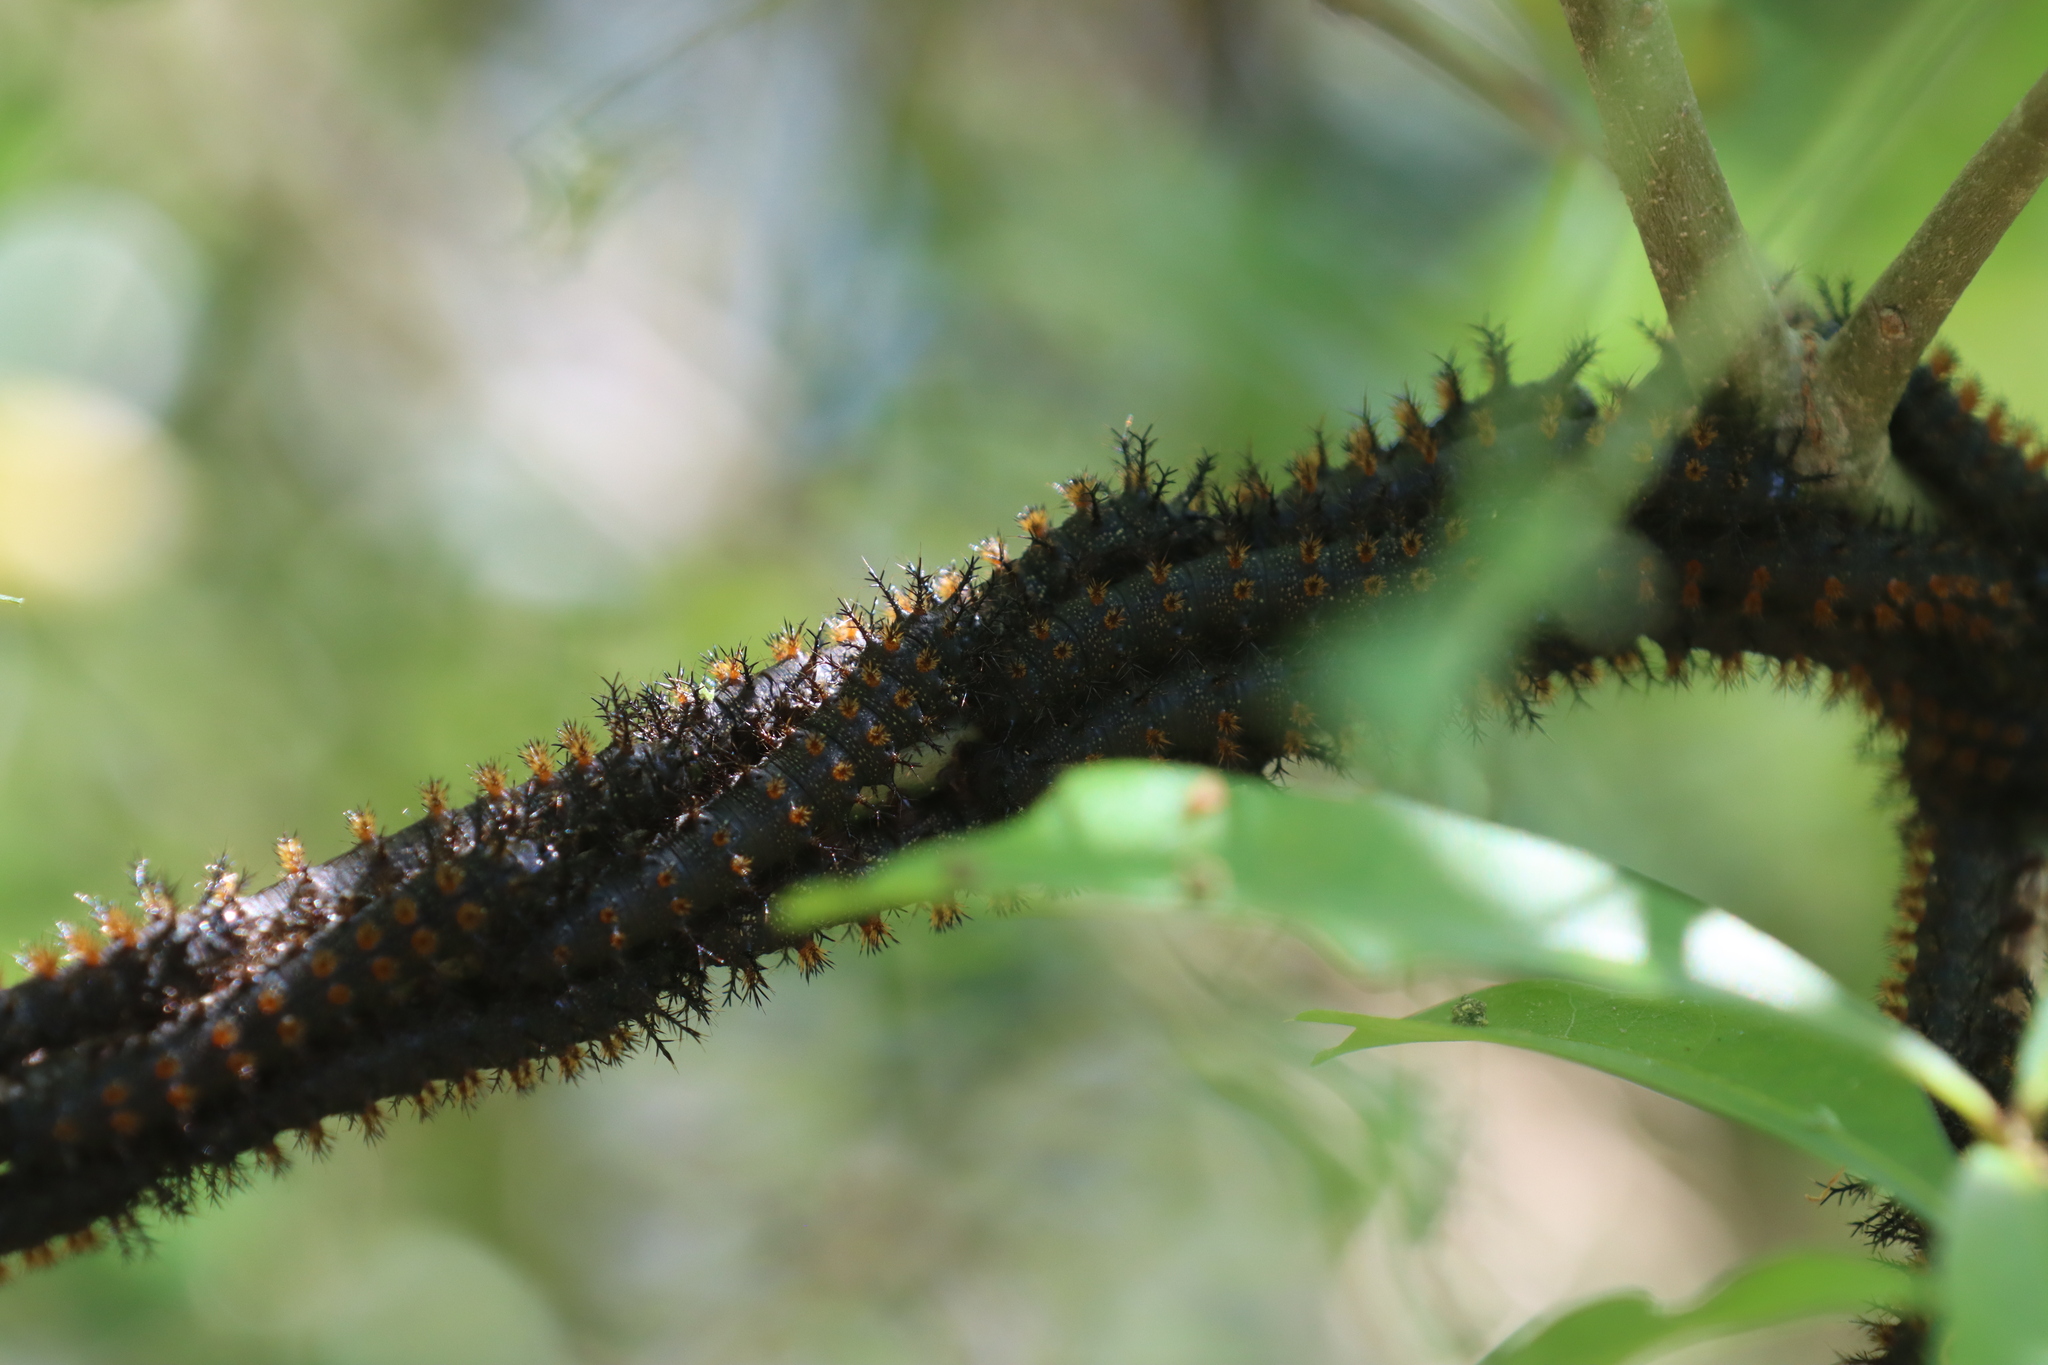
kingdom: Animalia
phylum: Arthropoda
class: Insecta
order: Lepidoptera
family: Saturniidae
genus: Hemileuca
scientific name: Hemileuca maia
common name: Eastern buckmoth
